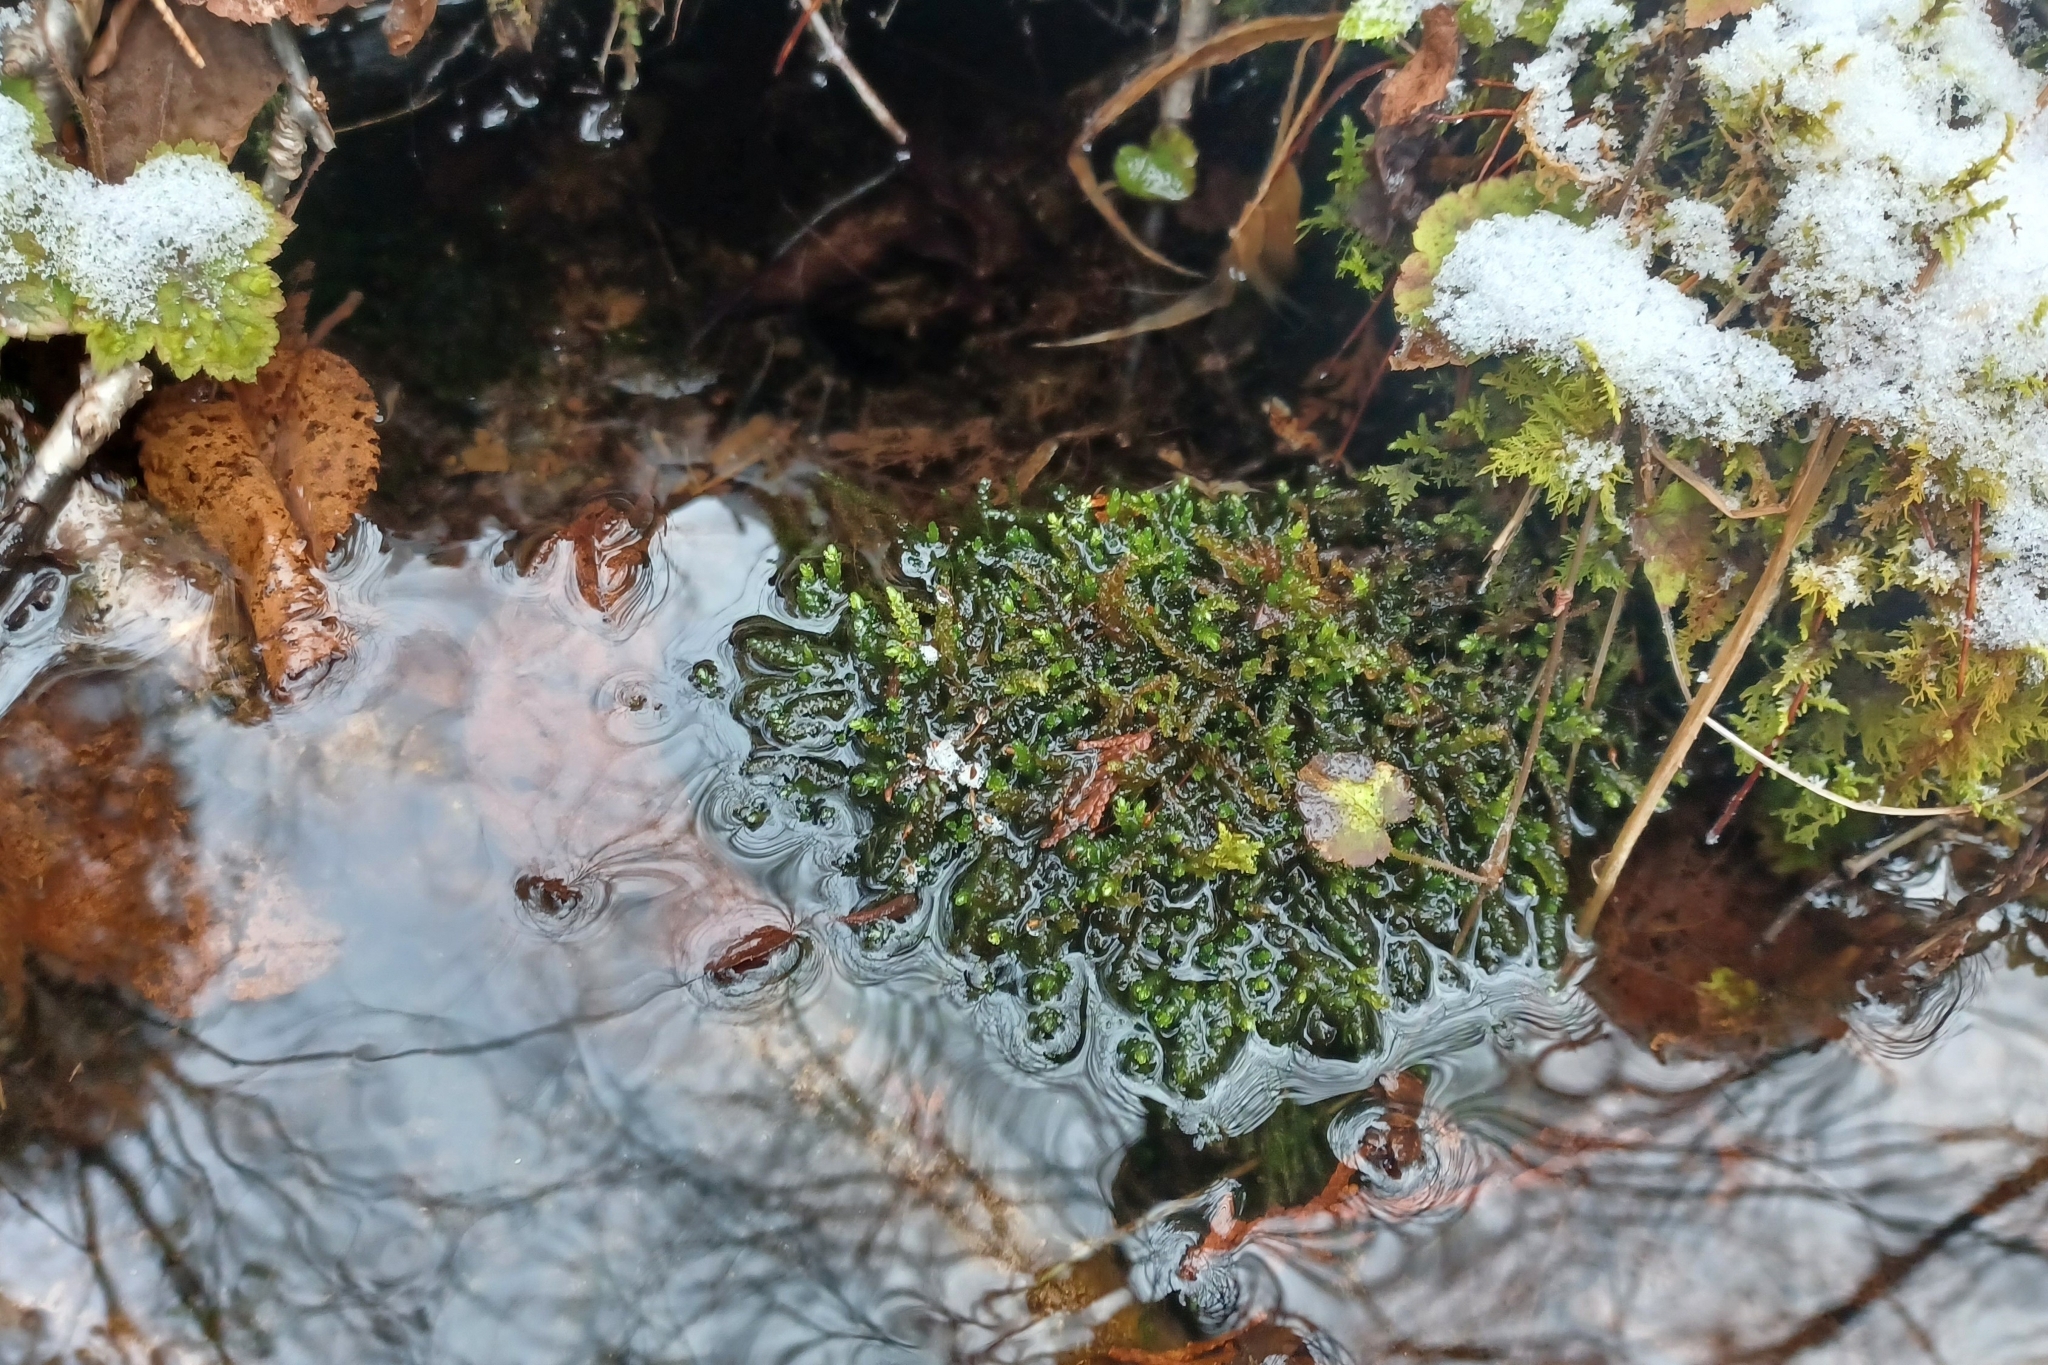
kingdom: Plantae
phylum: Bryophyta
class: Bryopsida
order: Hypnales
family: Brachytheciaceae
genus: Rhynchostegium
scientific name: Rhynchostegium aquaticum
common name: Aquatic long-beaked moss
